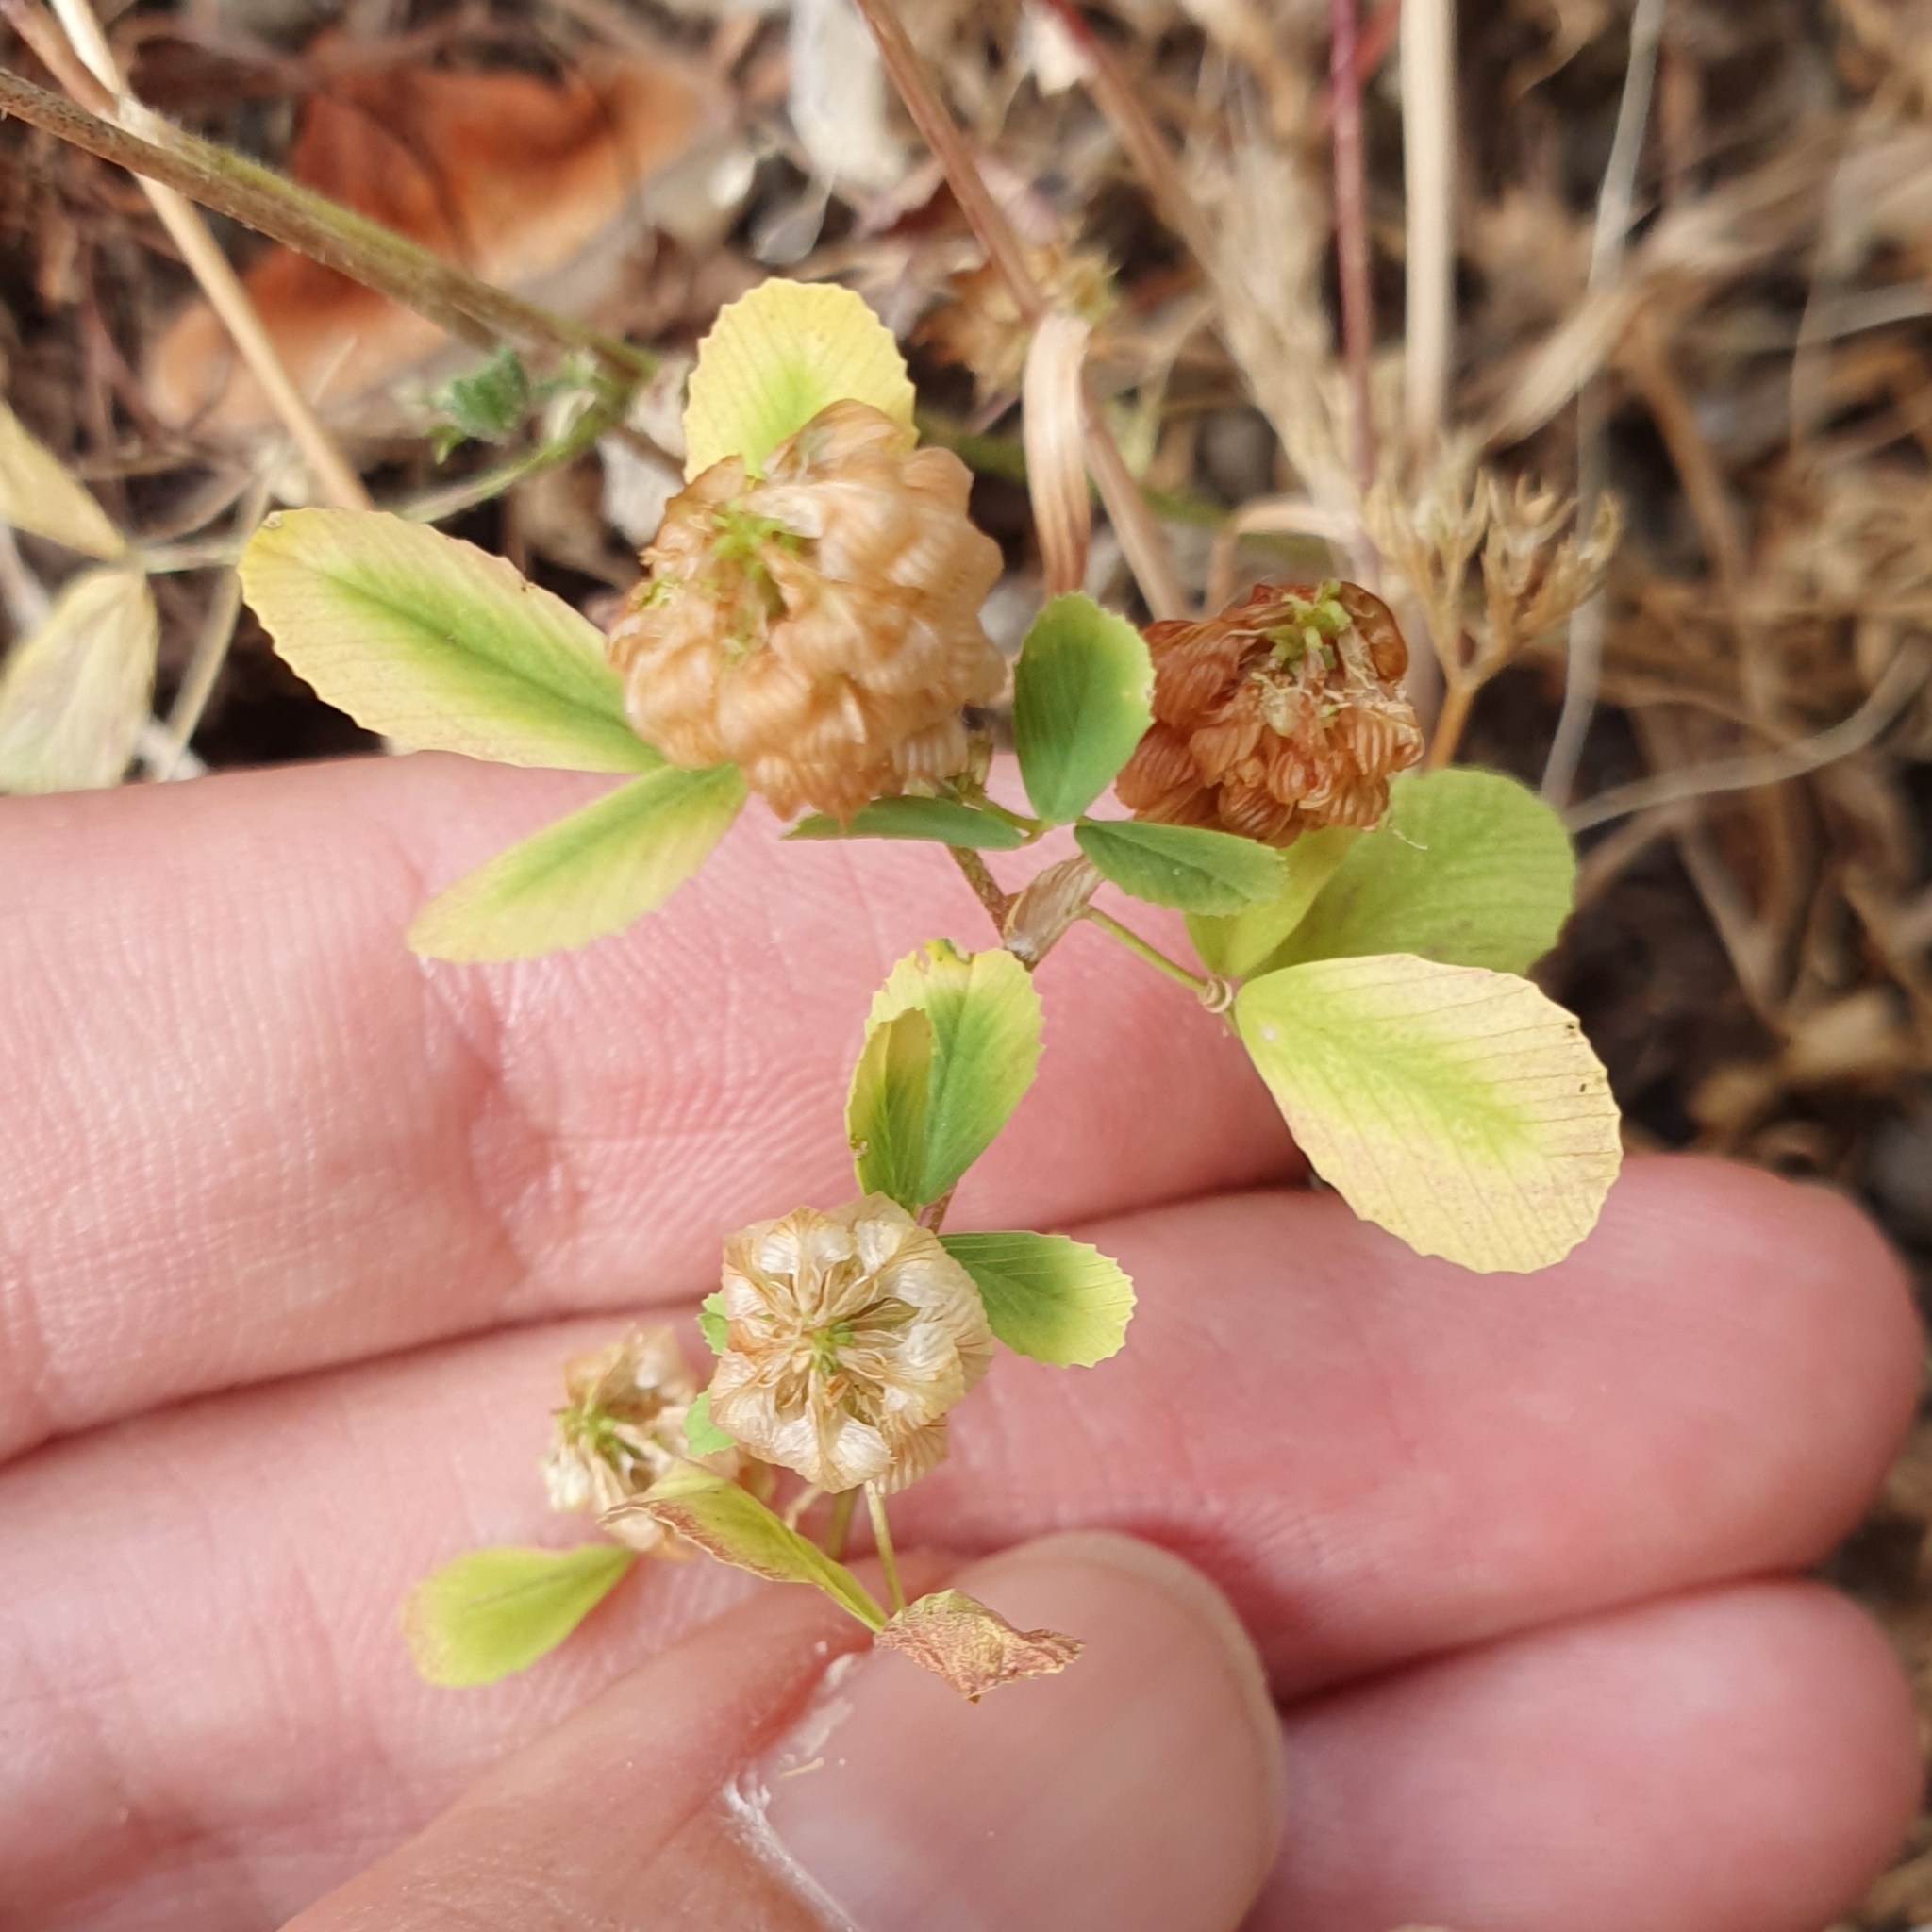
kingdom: Plantae
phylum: Tracheophyta
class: Magnoliopsida
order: Fabales
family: Fabaceae
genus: Trifolium
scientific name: Trifolium campestre
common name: Field clover
